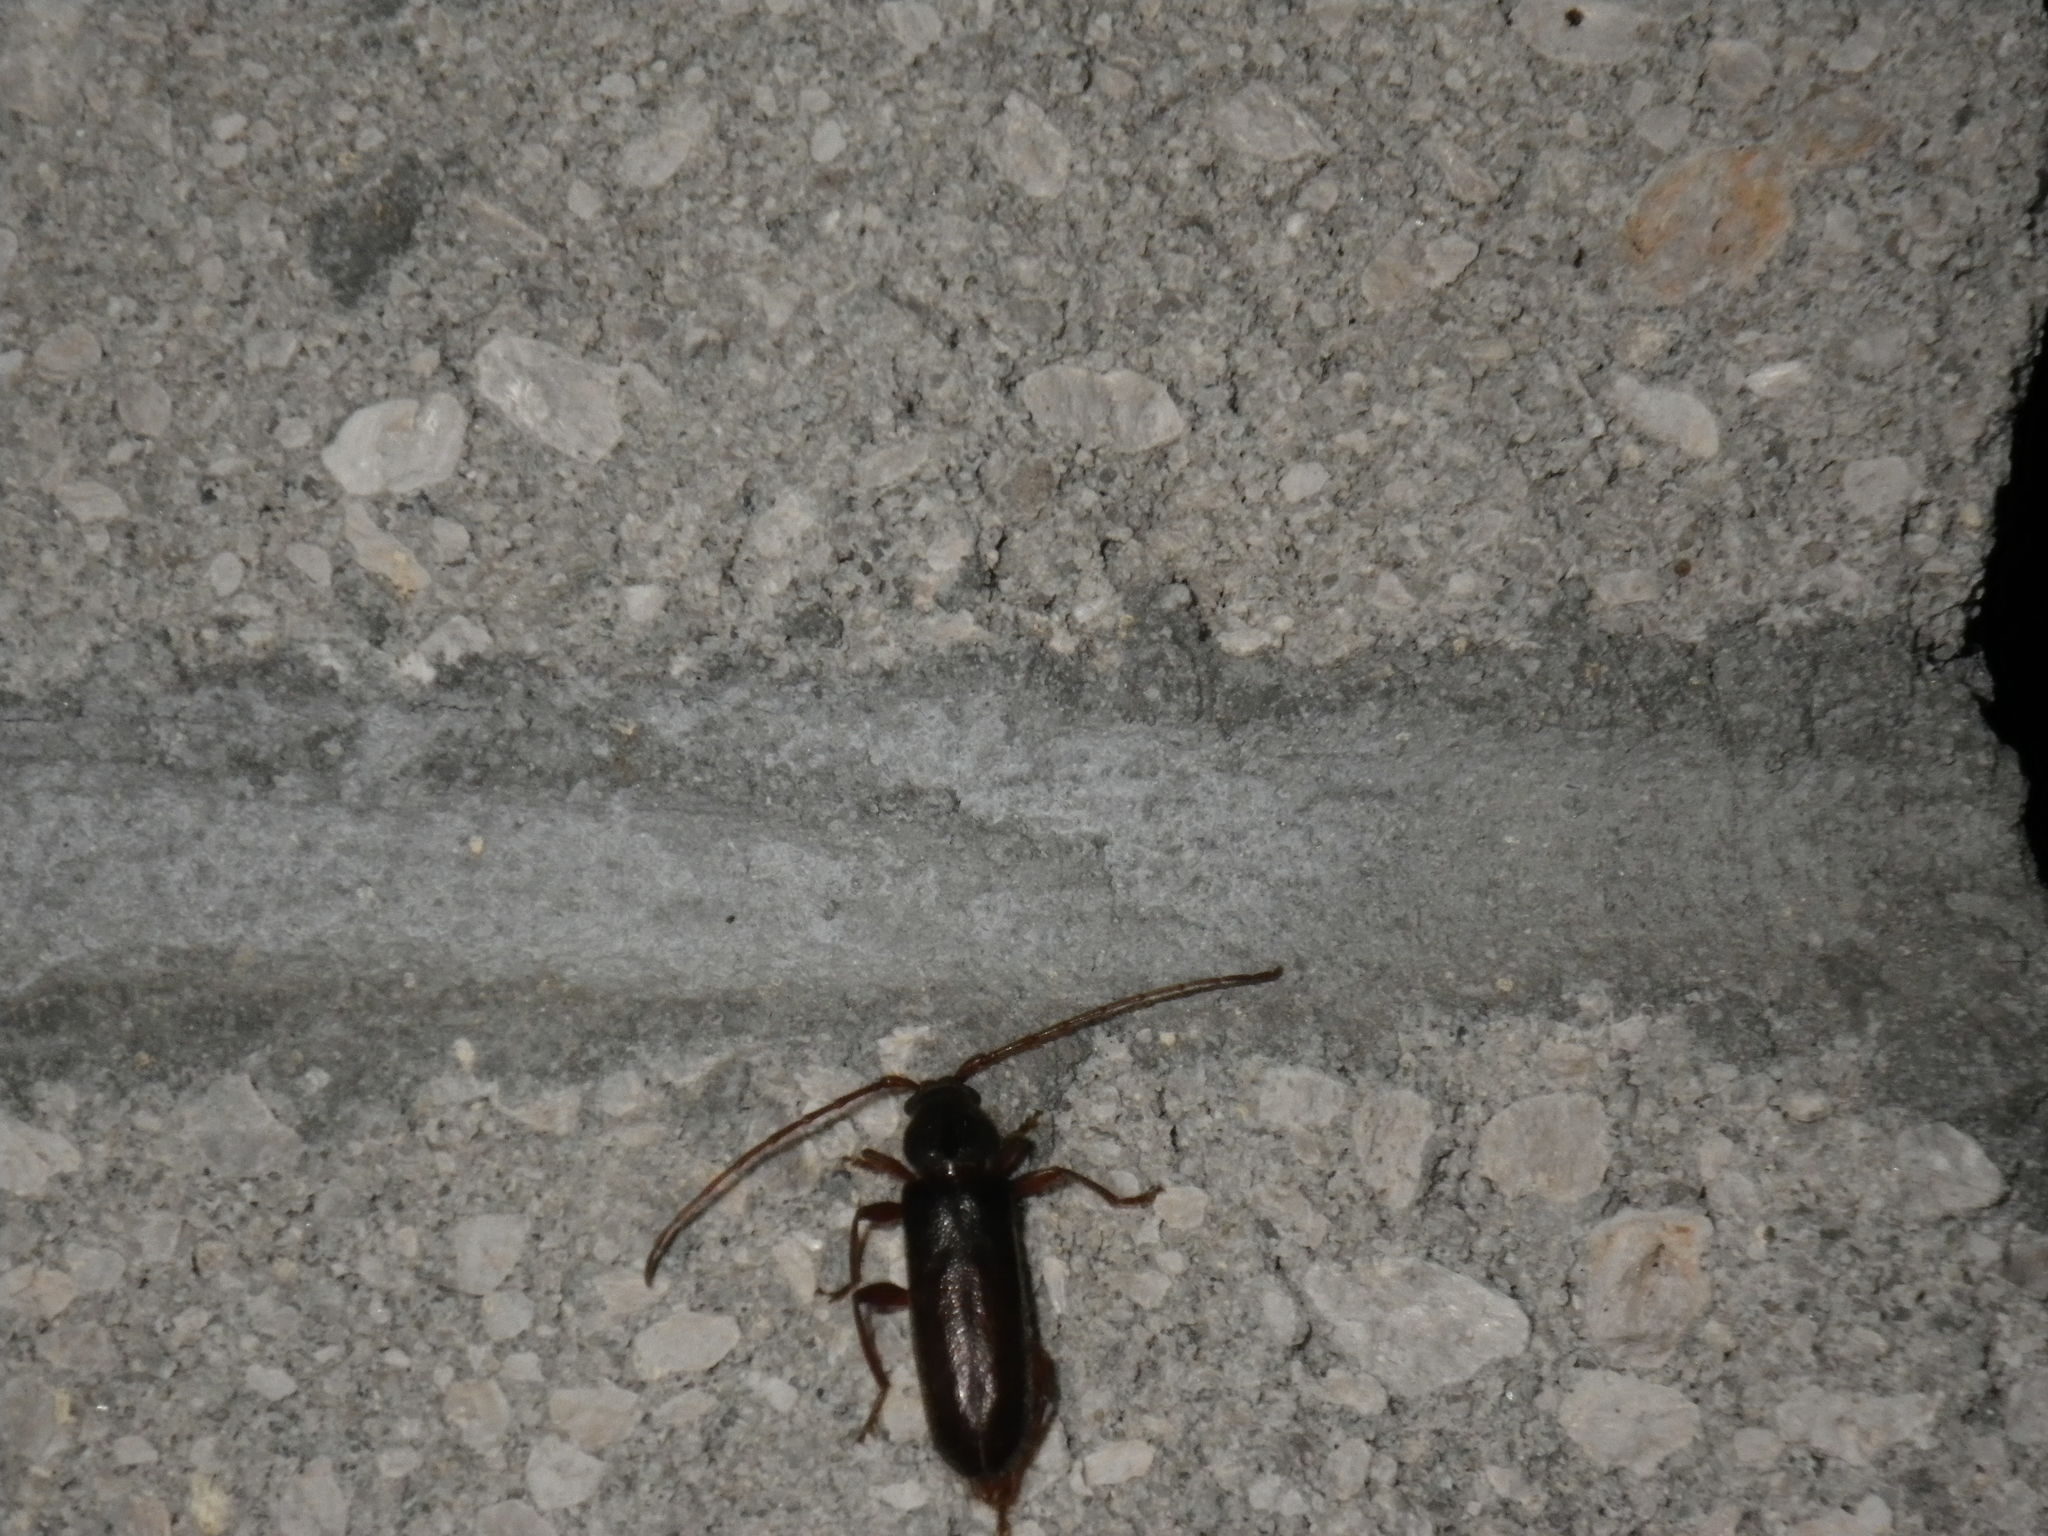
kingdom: Animalia
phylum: Arthropoda
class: Insecta
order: Coleoptera
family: Cerambycidae
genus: Haplidus
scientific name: Haplidus testaceus
